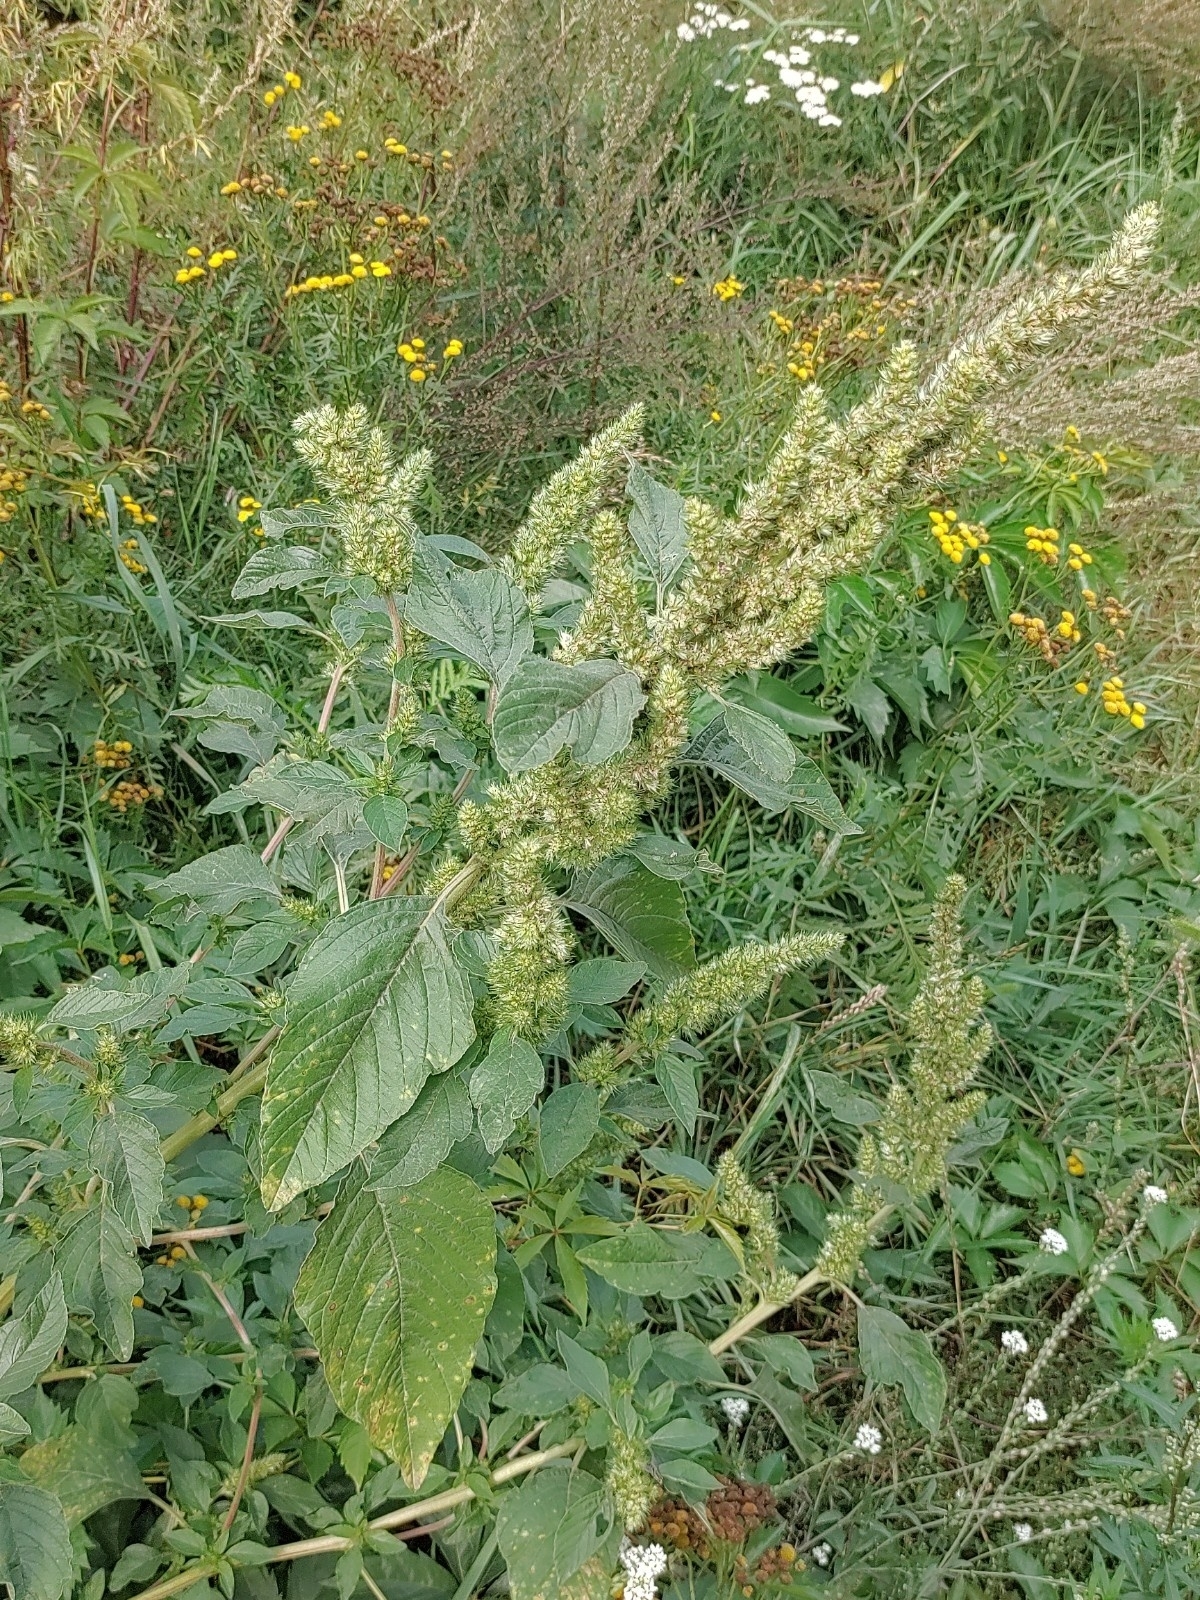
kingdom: Plantae
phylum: Tracheophyta
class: Magnoliopsida
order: Caryophyllales
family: Amaranthaceae
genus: Amaranthus
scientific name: Amaranthus retroflexus
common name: Redroot amaranth
